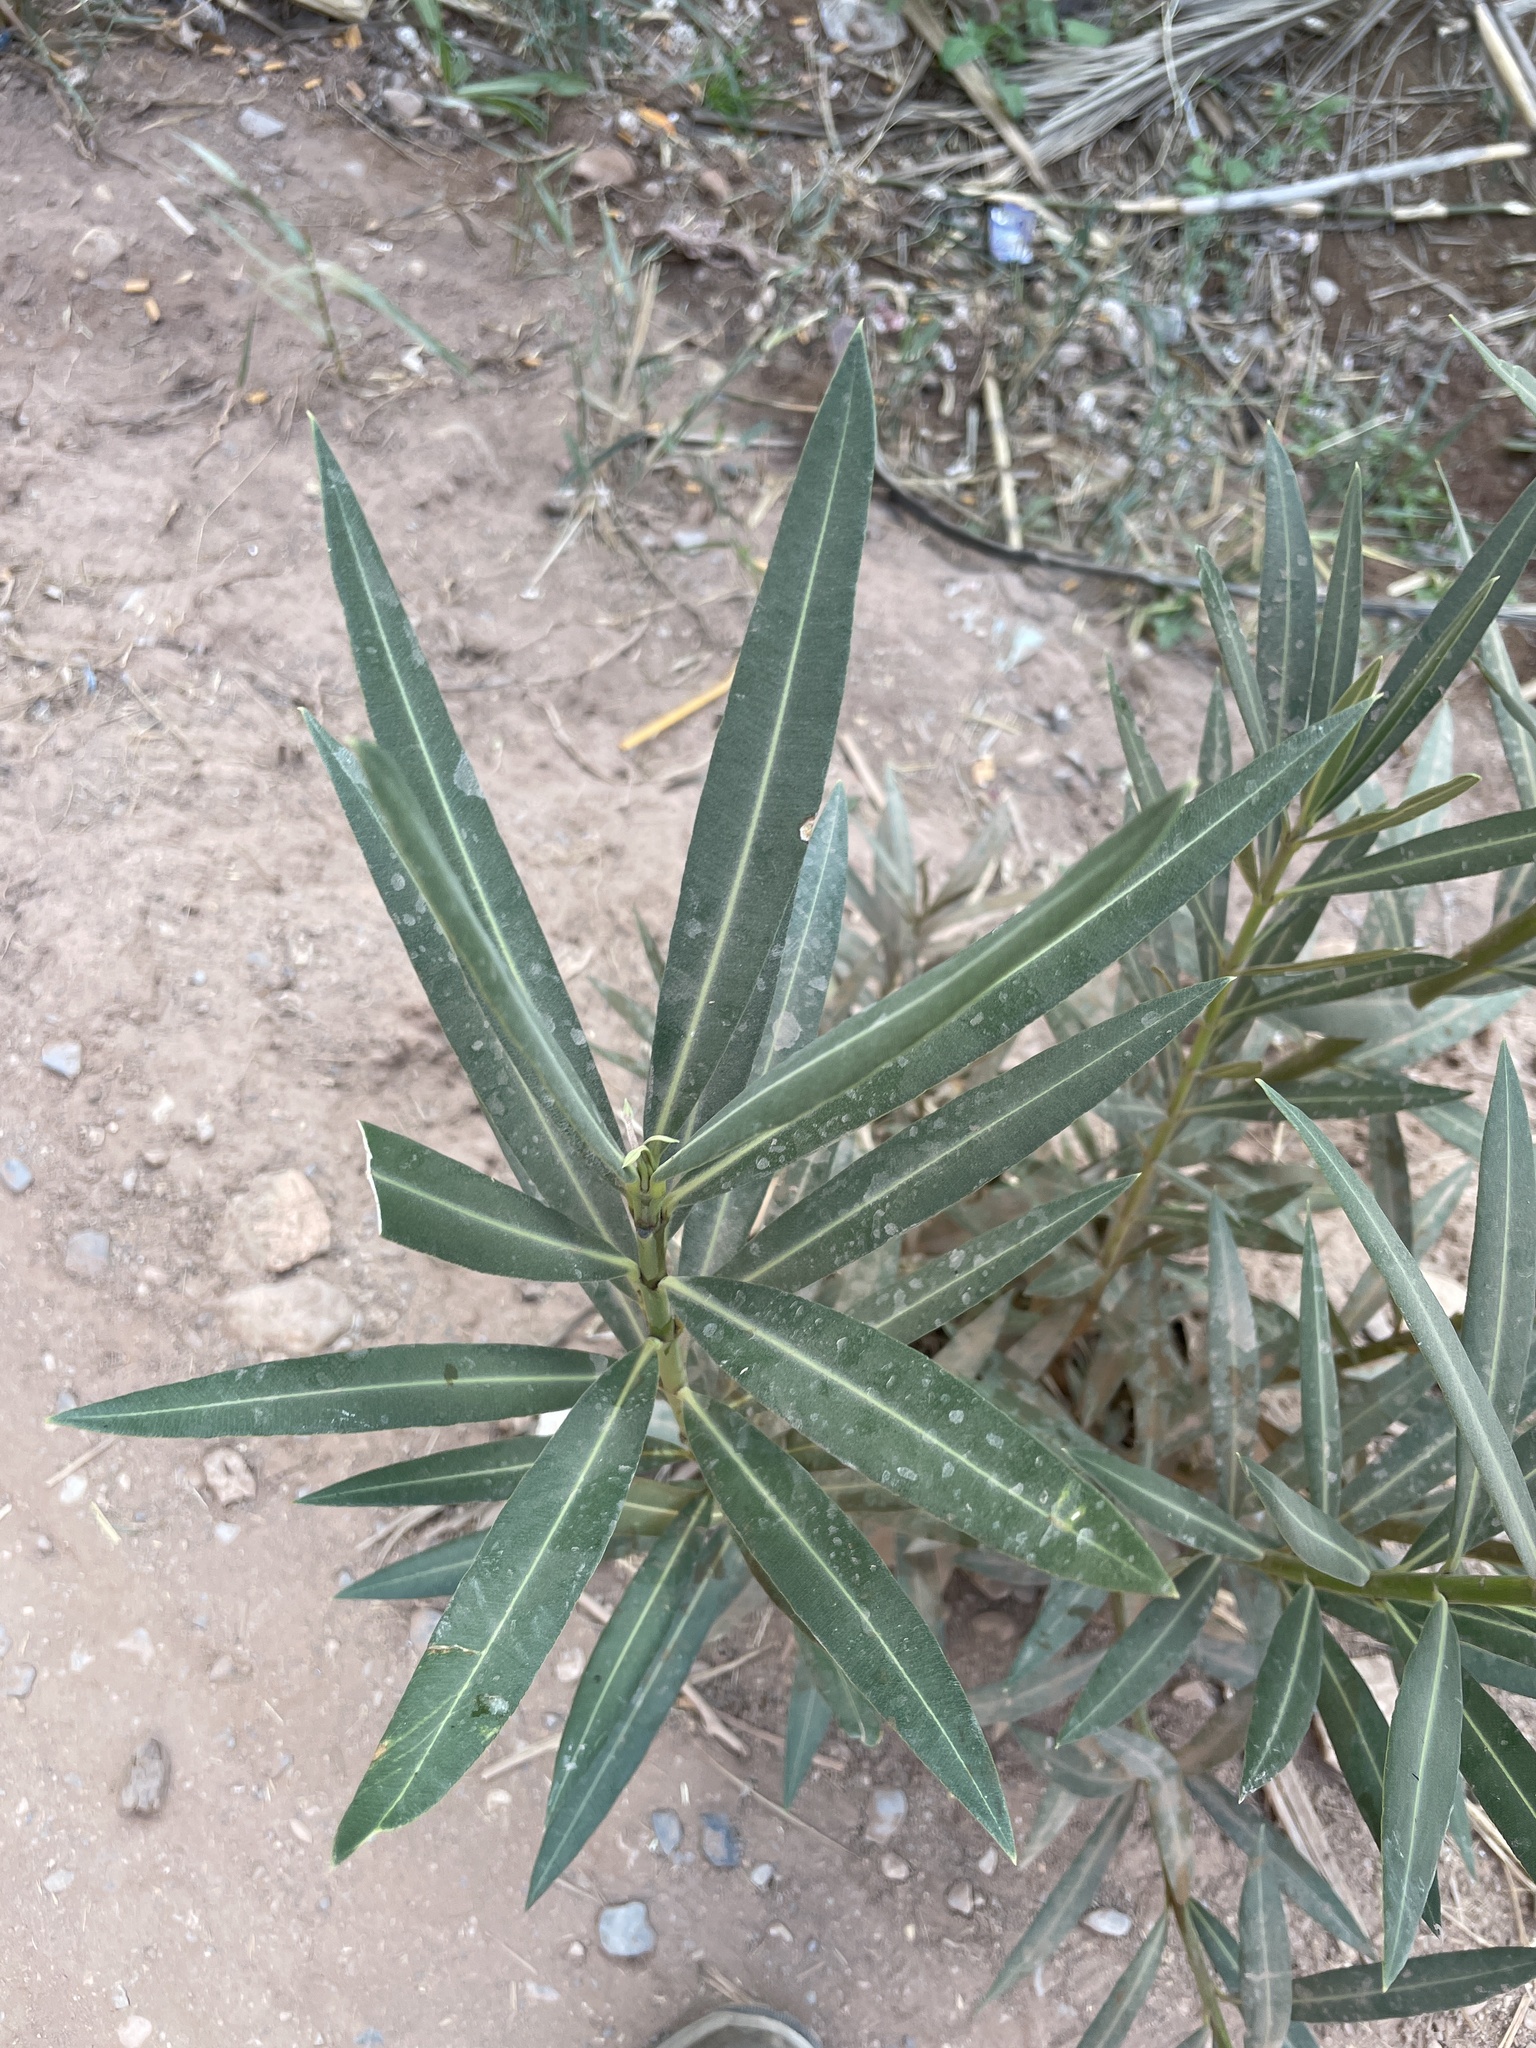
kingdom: Plantae
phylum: Tracheophyta
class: Magnoliopsida
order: Gentianales
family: Apocynaceae
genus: Nerium
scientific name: Nerium oleander
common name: Oleander
